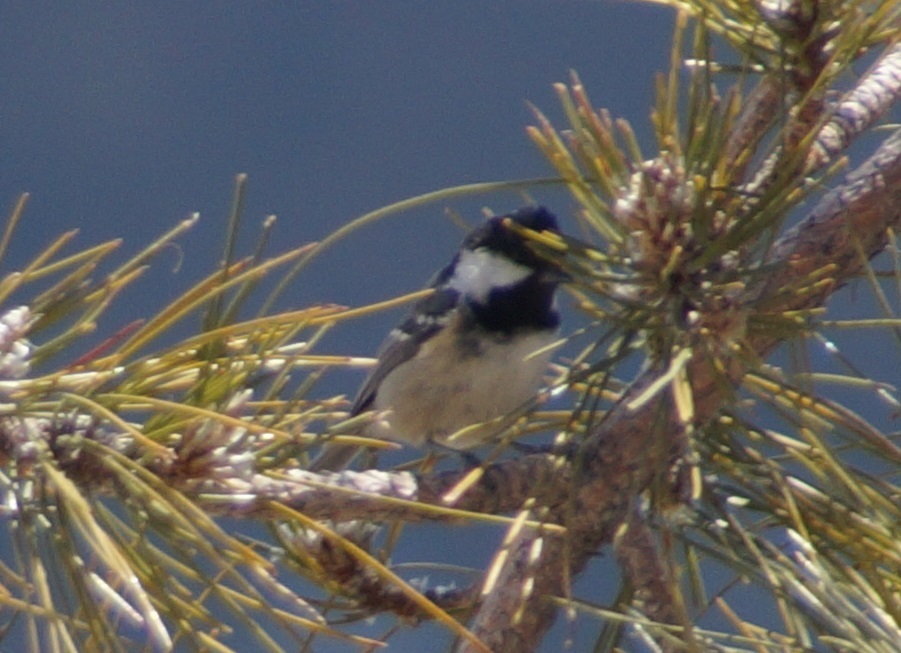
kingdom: Animalia
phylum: Chordata
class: Aves
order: Passeriformes
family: Paridae
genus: Periparus
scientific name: Periparus ater
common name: Coal tit
